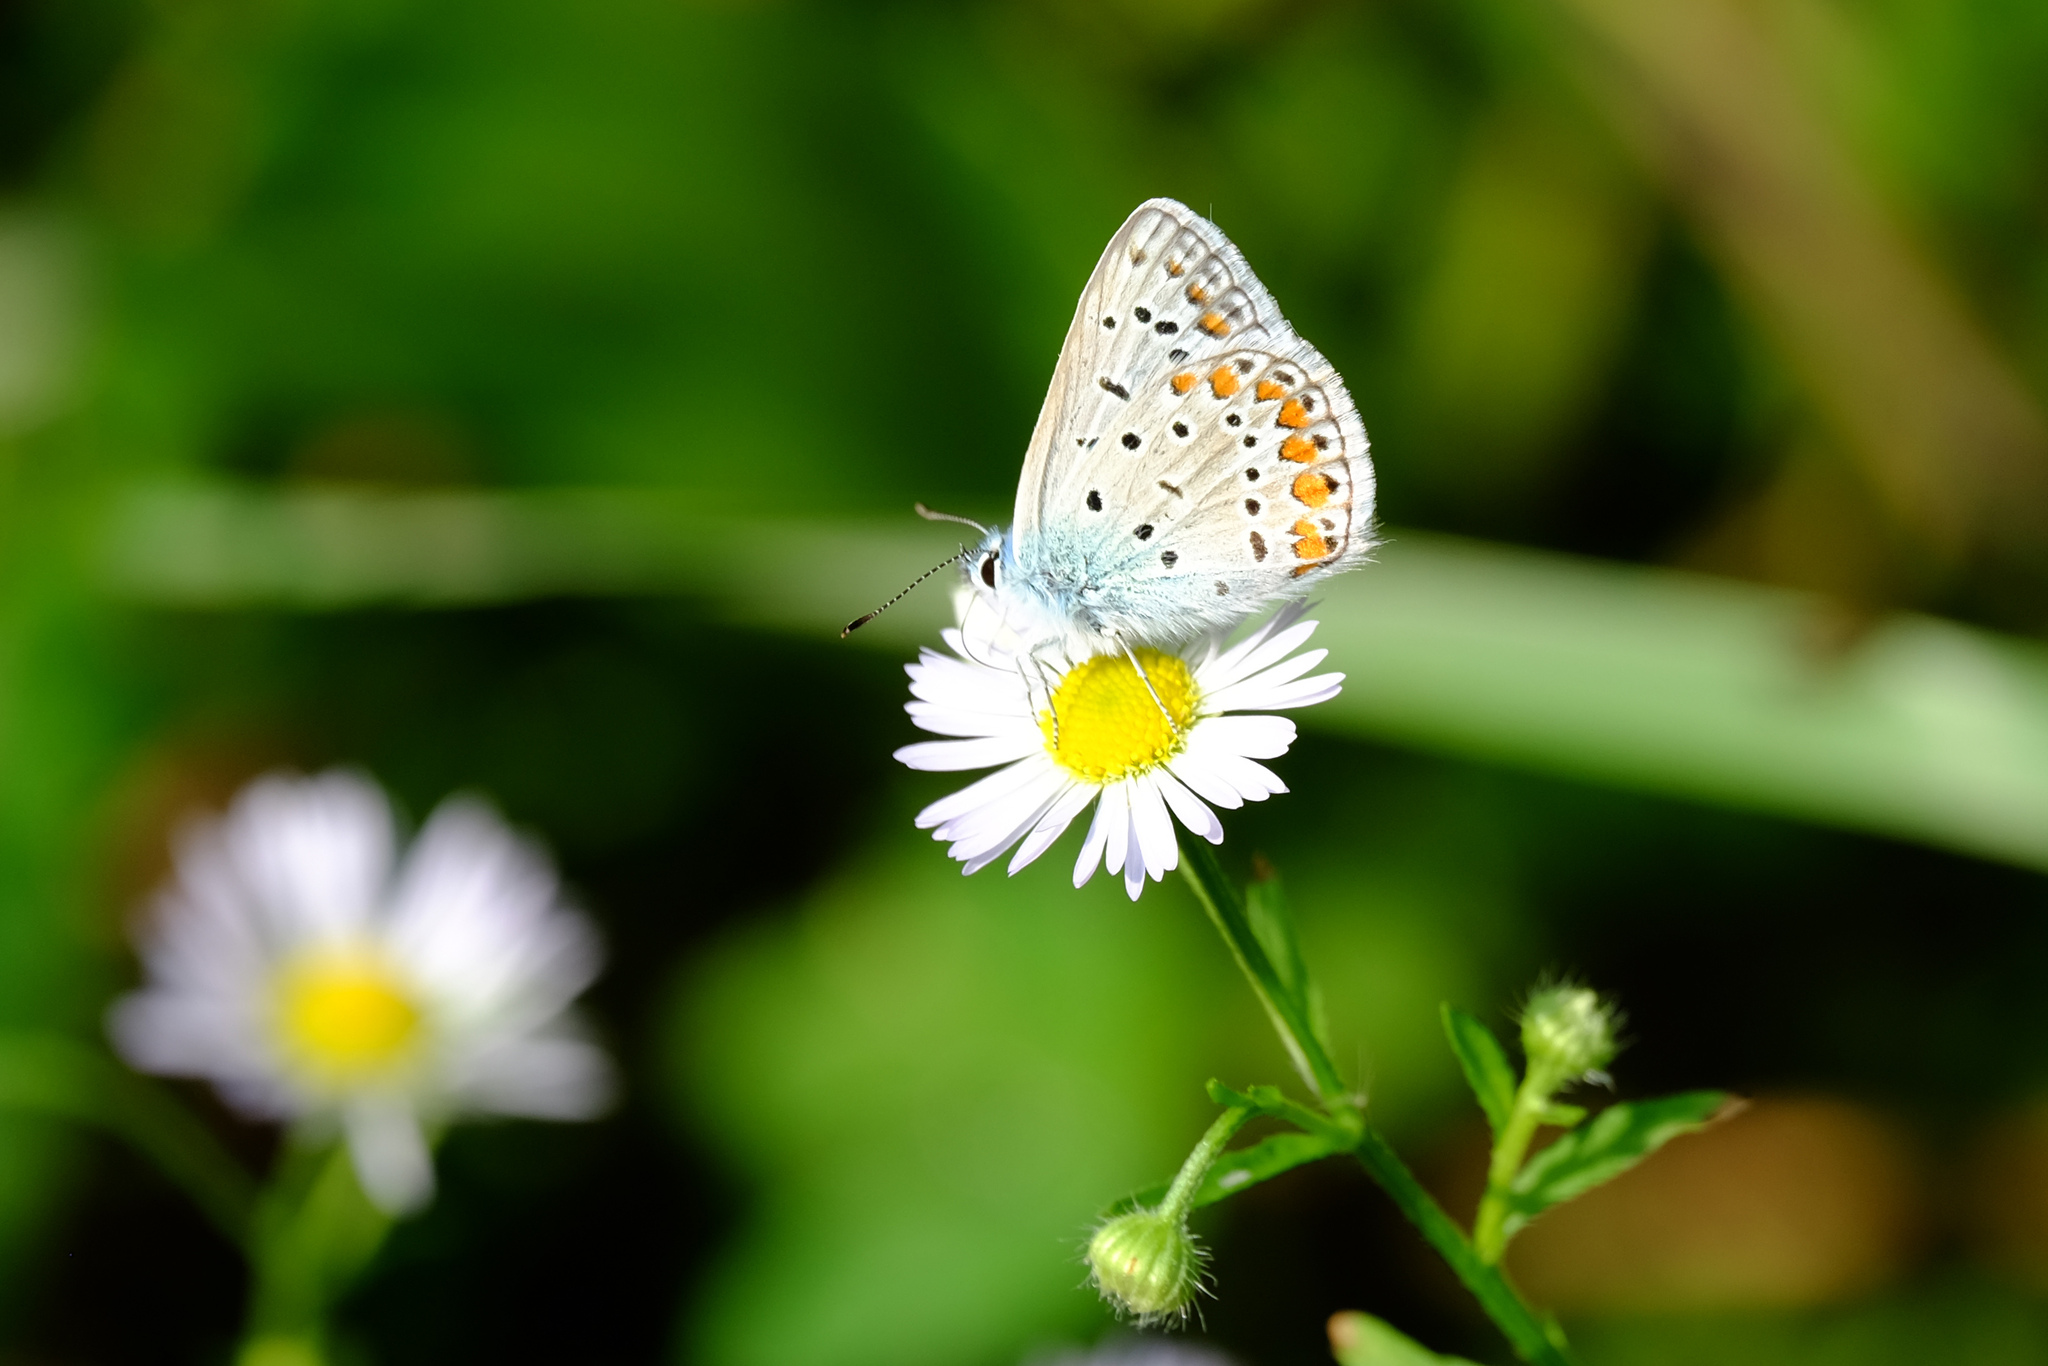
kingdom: Animalia
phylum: Arthropoda
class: Insecta
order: Lepidoptera
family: Lycaenidae
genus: Polyommatus
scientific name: Polyommatus icarus
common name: Common blue
